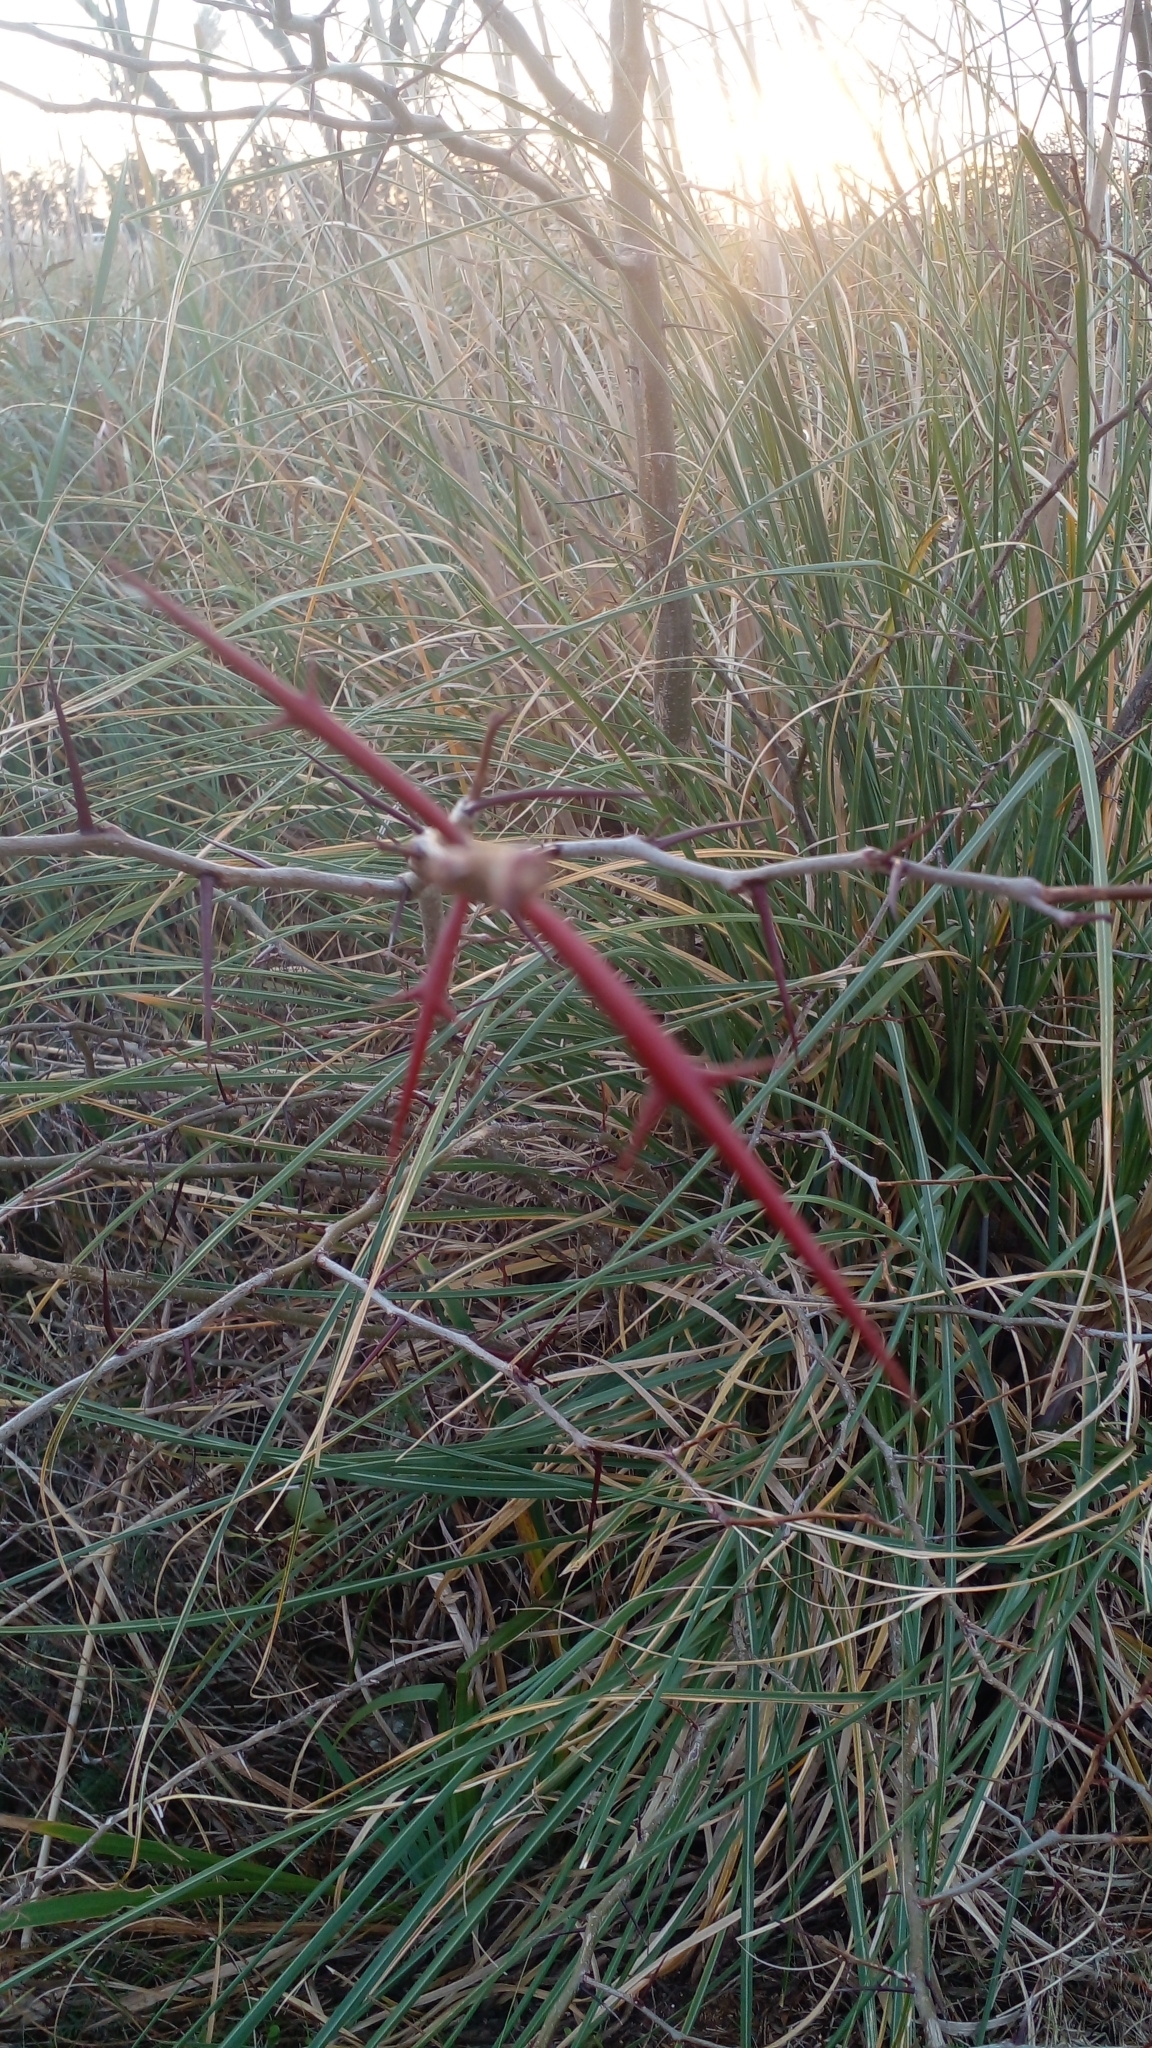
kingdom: Plantae
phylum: Tracheophyta
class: Magnoliopsida
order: Fabales
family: Fabaceae
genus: Gleditsia
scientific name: Gleditsia triacanthos
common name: Common honeylocust
